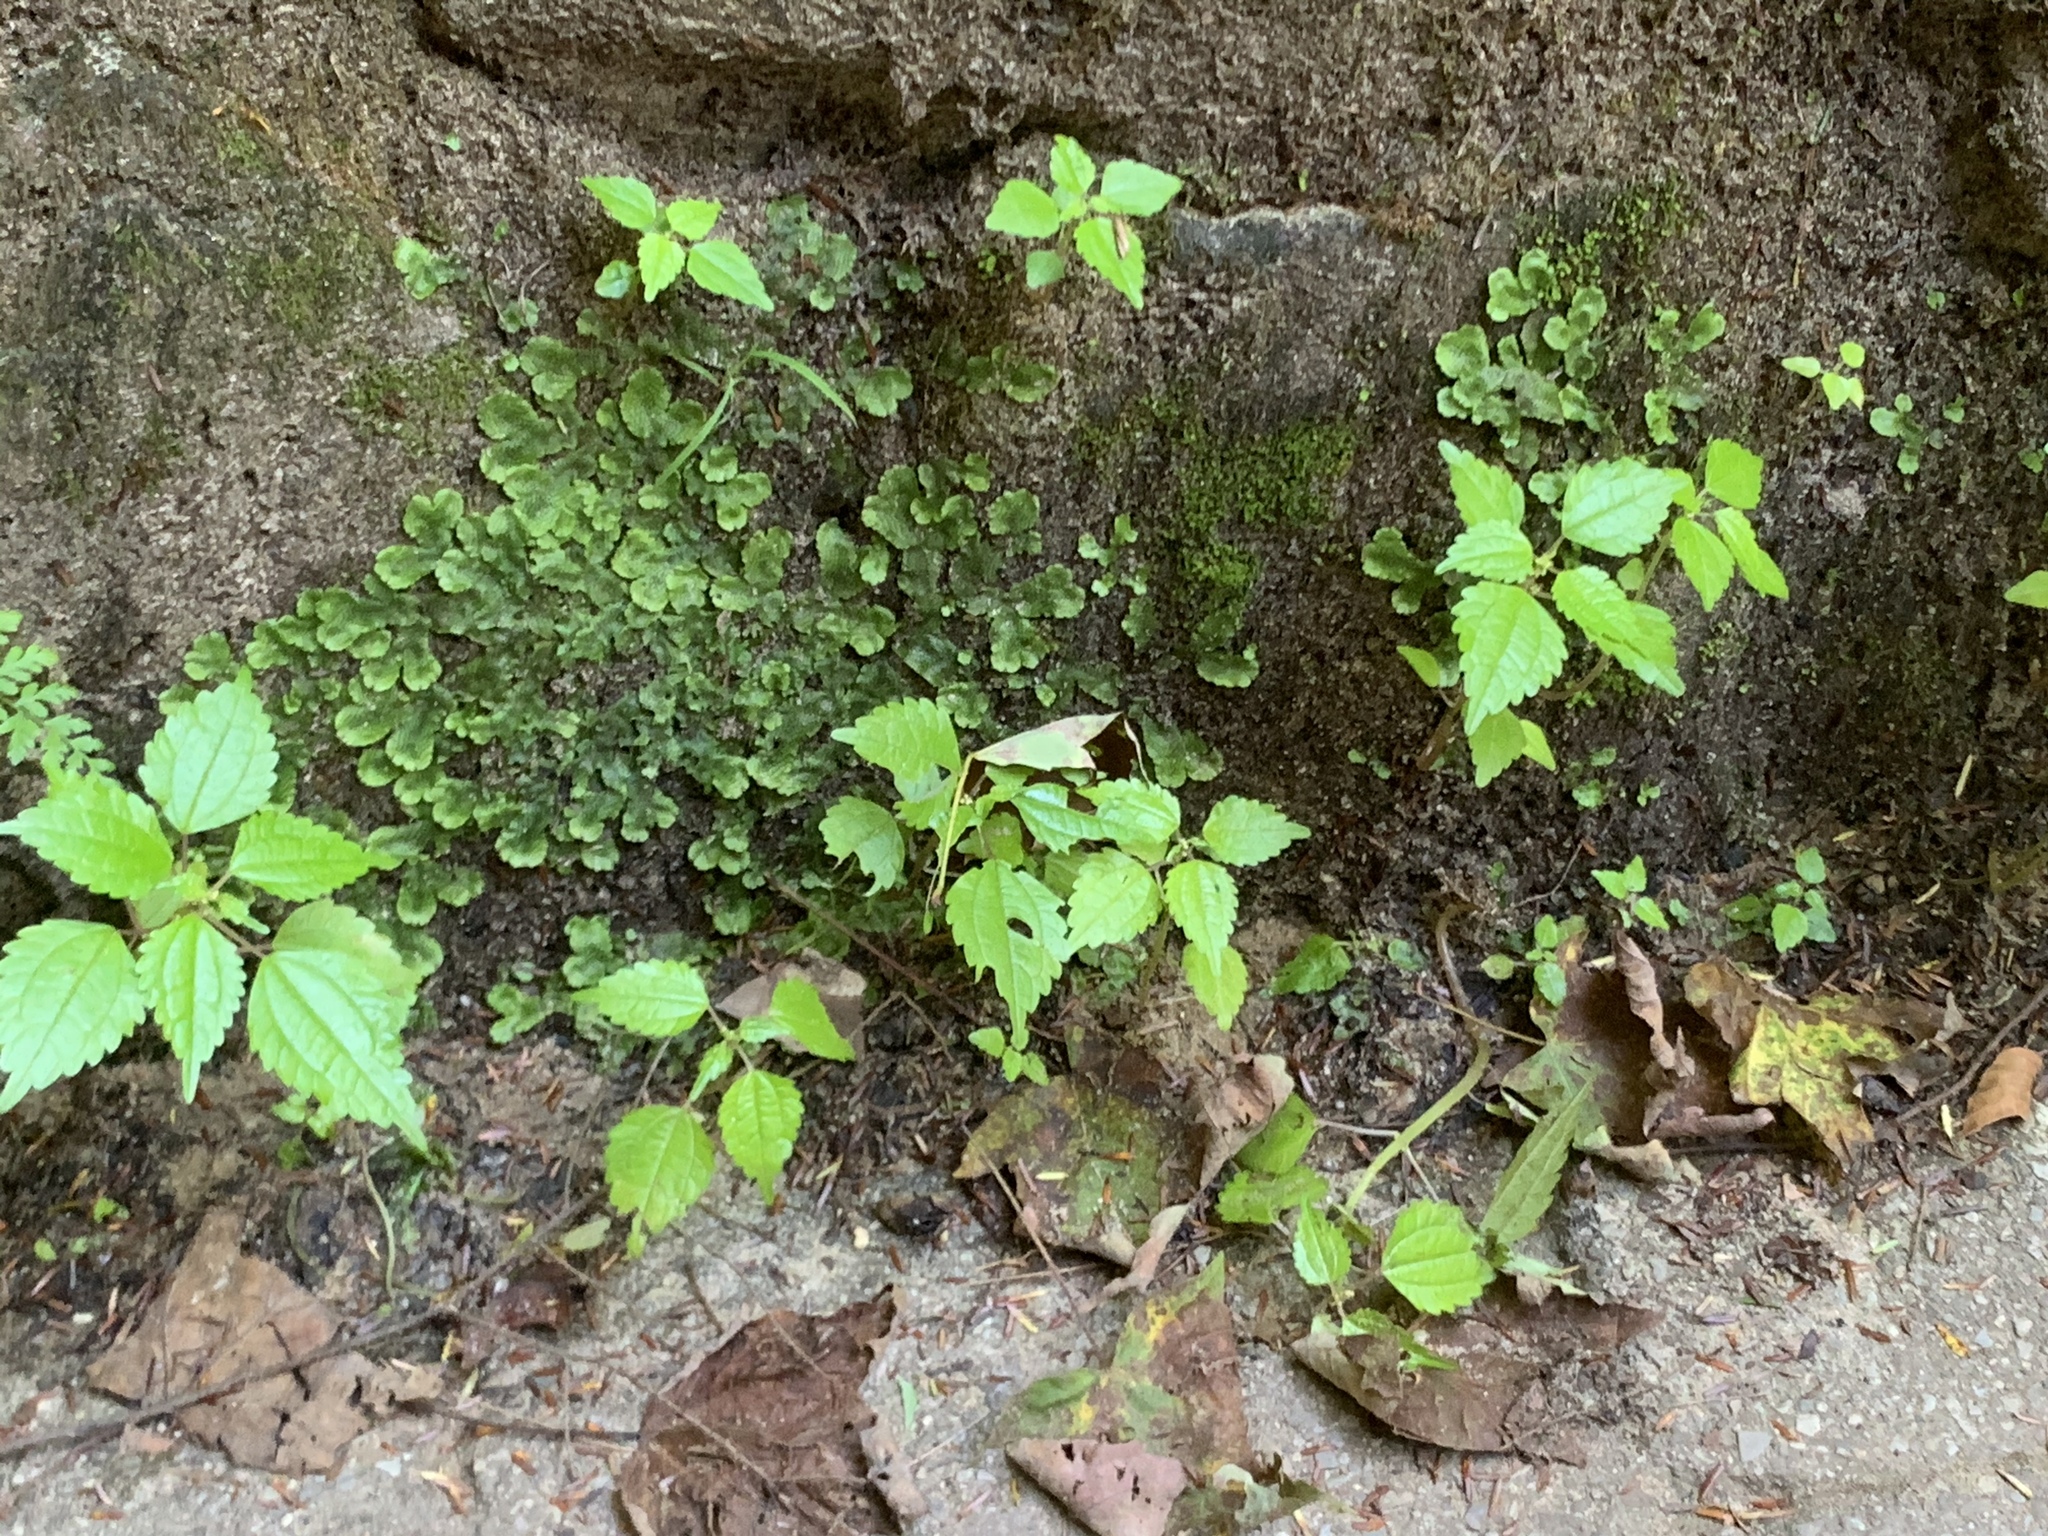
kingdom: Plantae
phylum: Tracheophyta
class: Magnoliopsida
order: Rosales
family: Urticaceae
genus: Pilea
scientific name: Pilea pumila
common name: Clearweed
